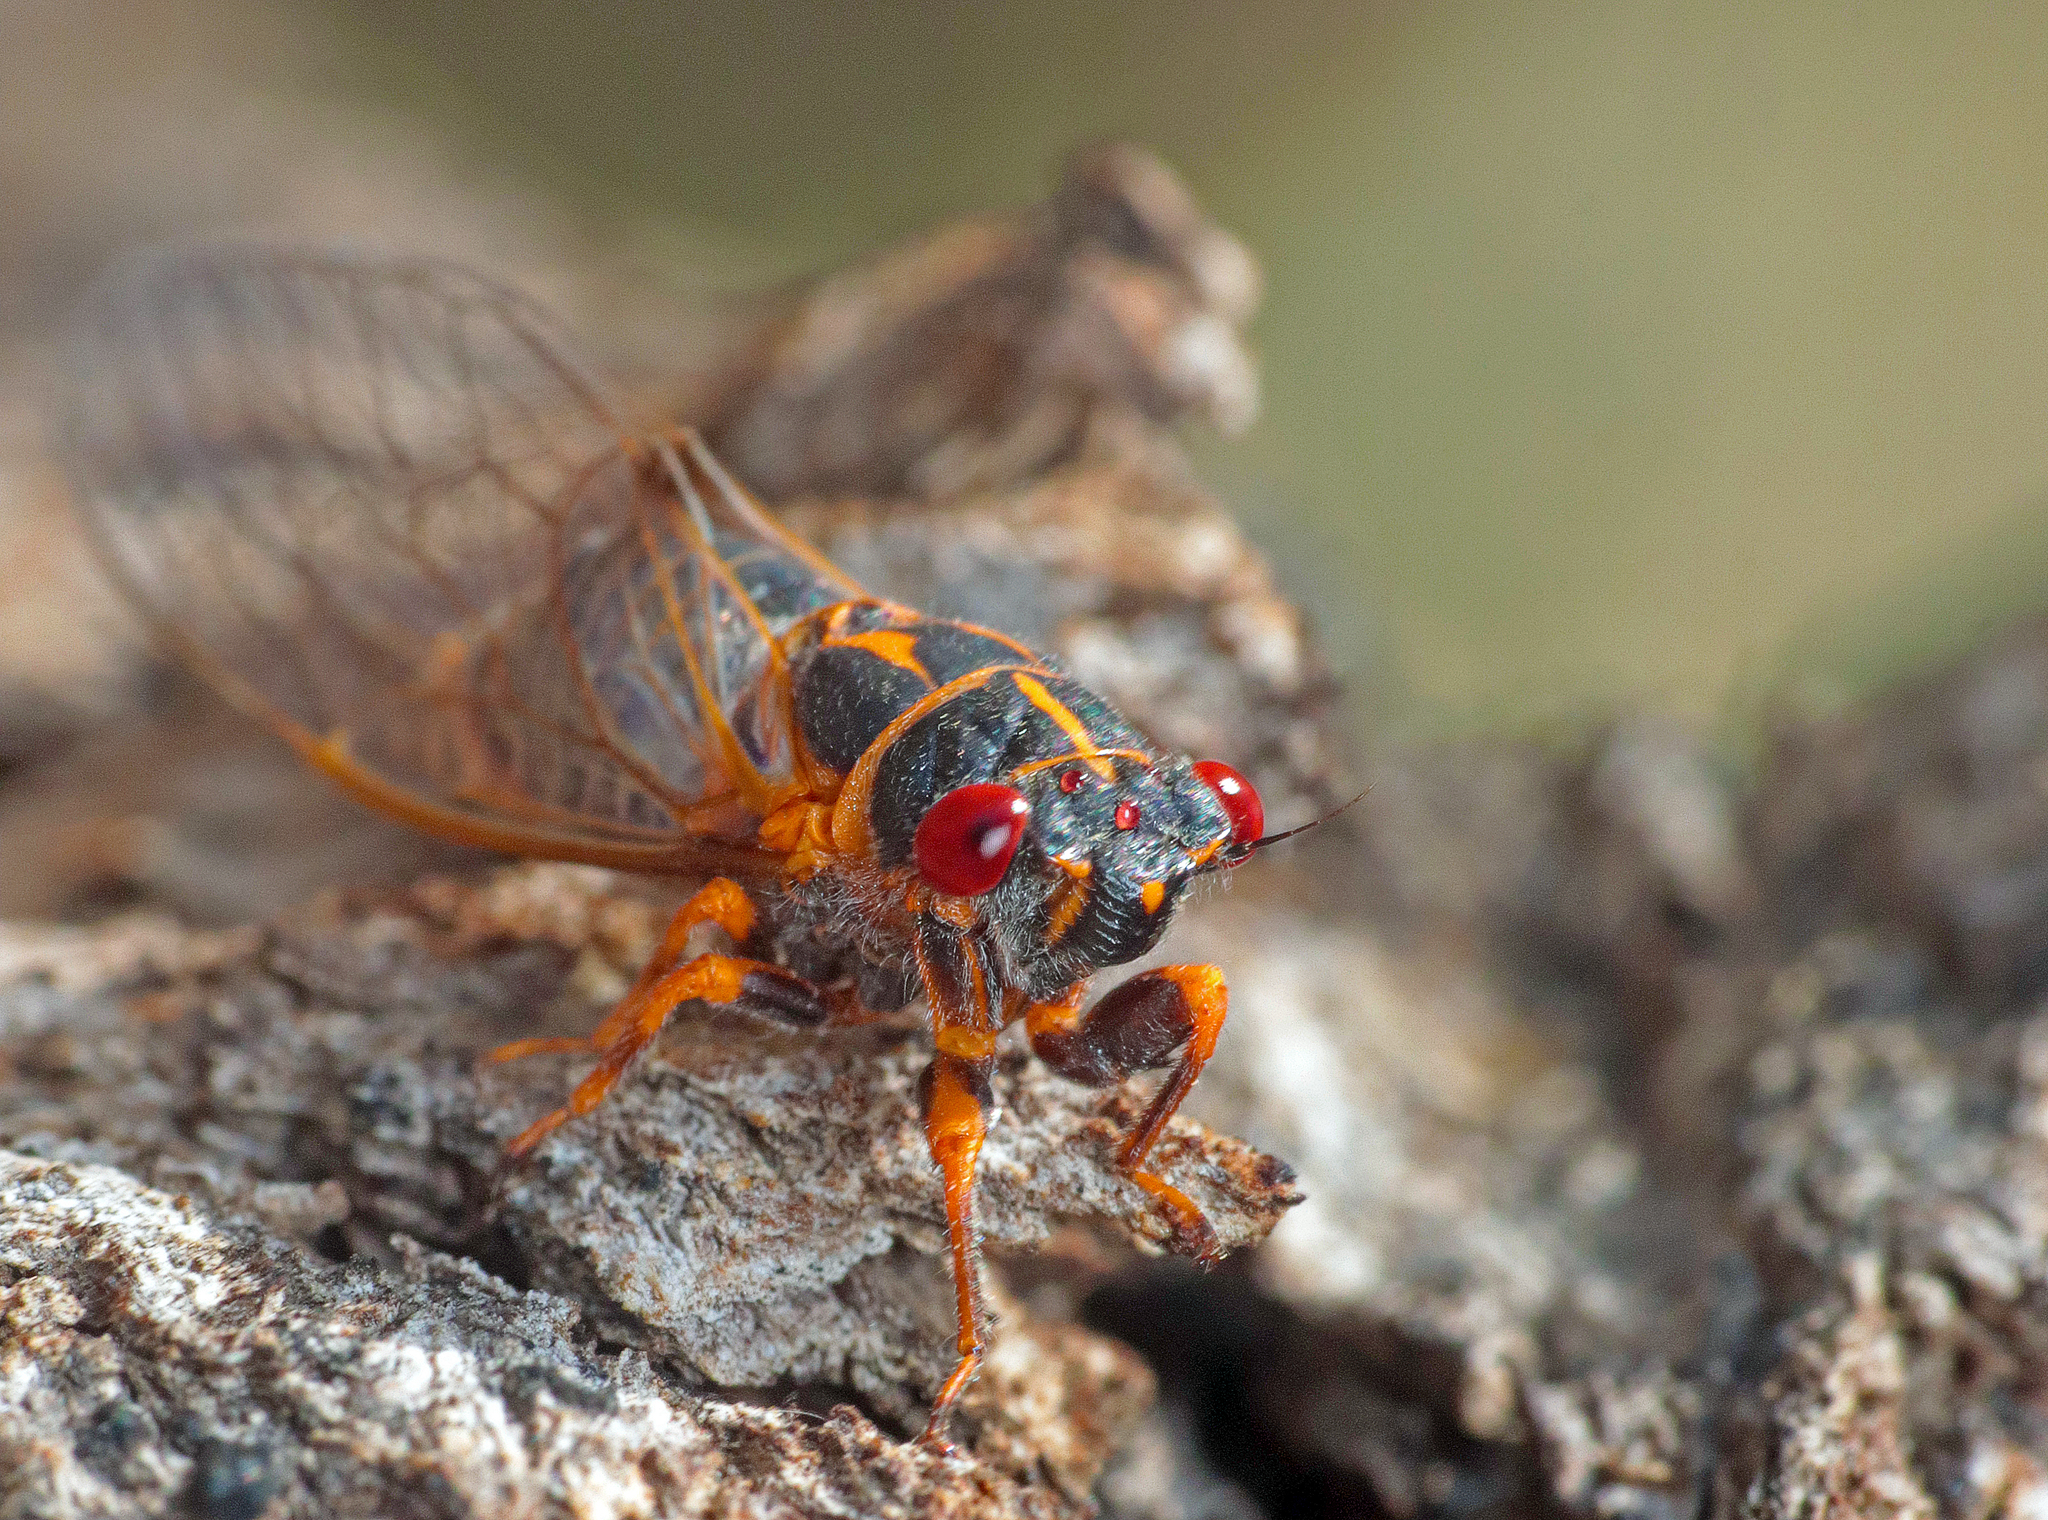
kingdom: Animalia
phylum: Arthropoda
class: Insecta
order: Hemiptera
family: Cicadidae
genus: Popplepsalta
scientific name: Popplepsalta corymbiae
